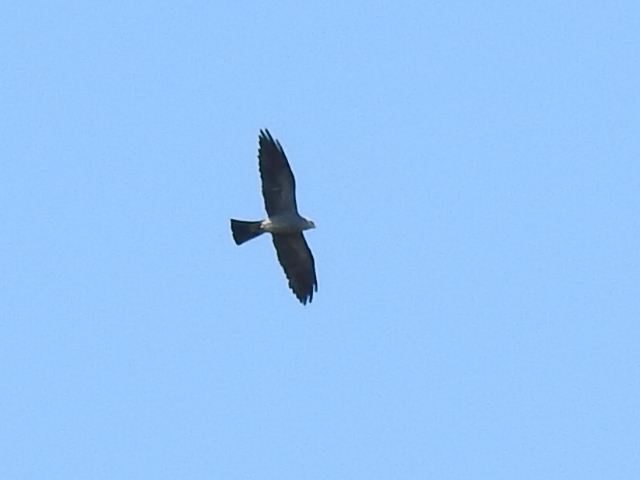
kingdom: Animalia
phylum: Chordata
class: Aves
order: Accipitriformes
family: Accipitridae
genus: Ictinia
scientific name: Ictinia mississippiensis
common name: Mississippi kite
